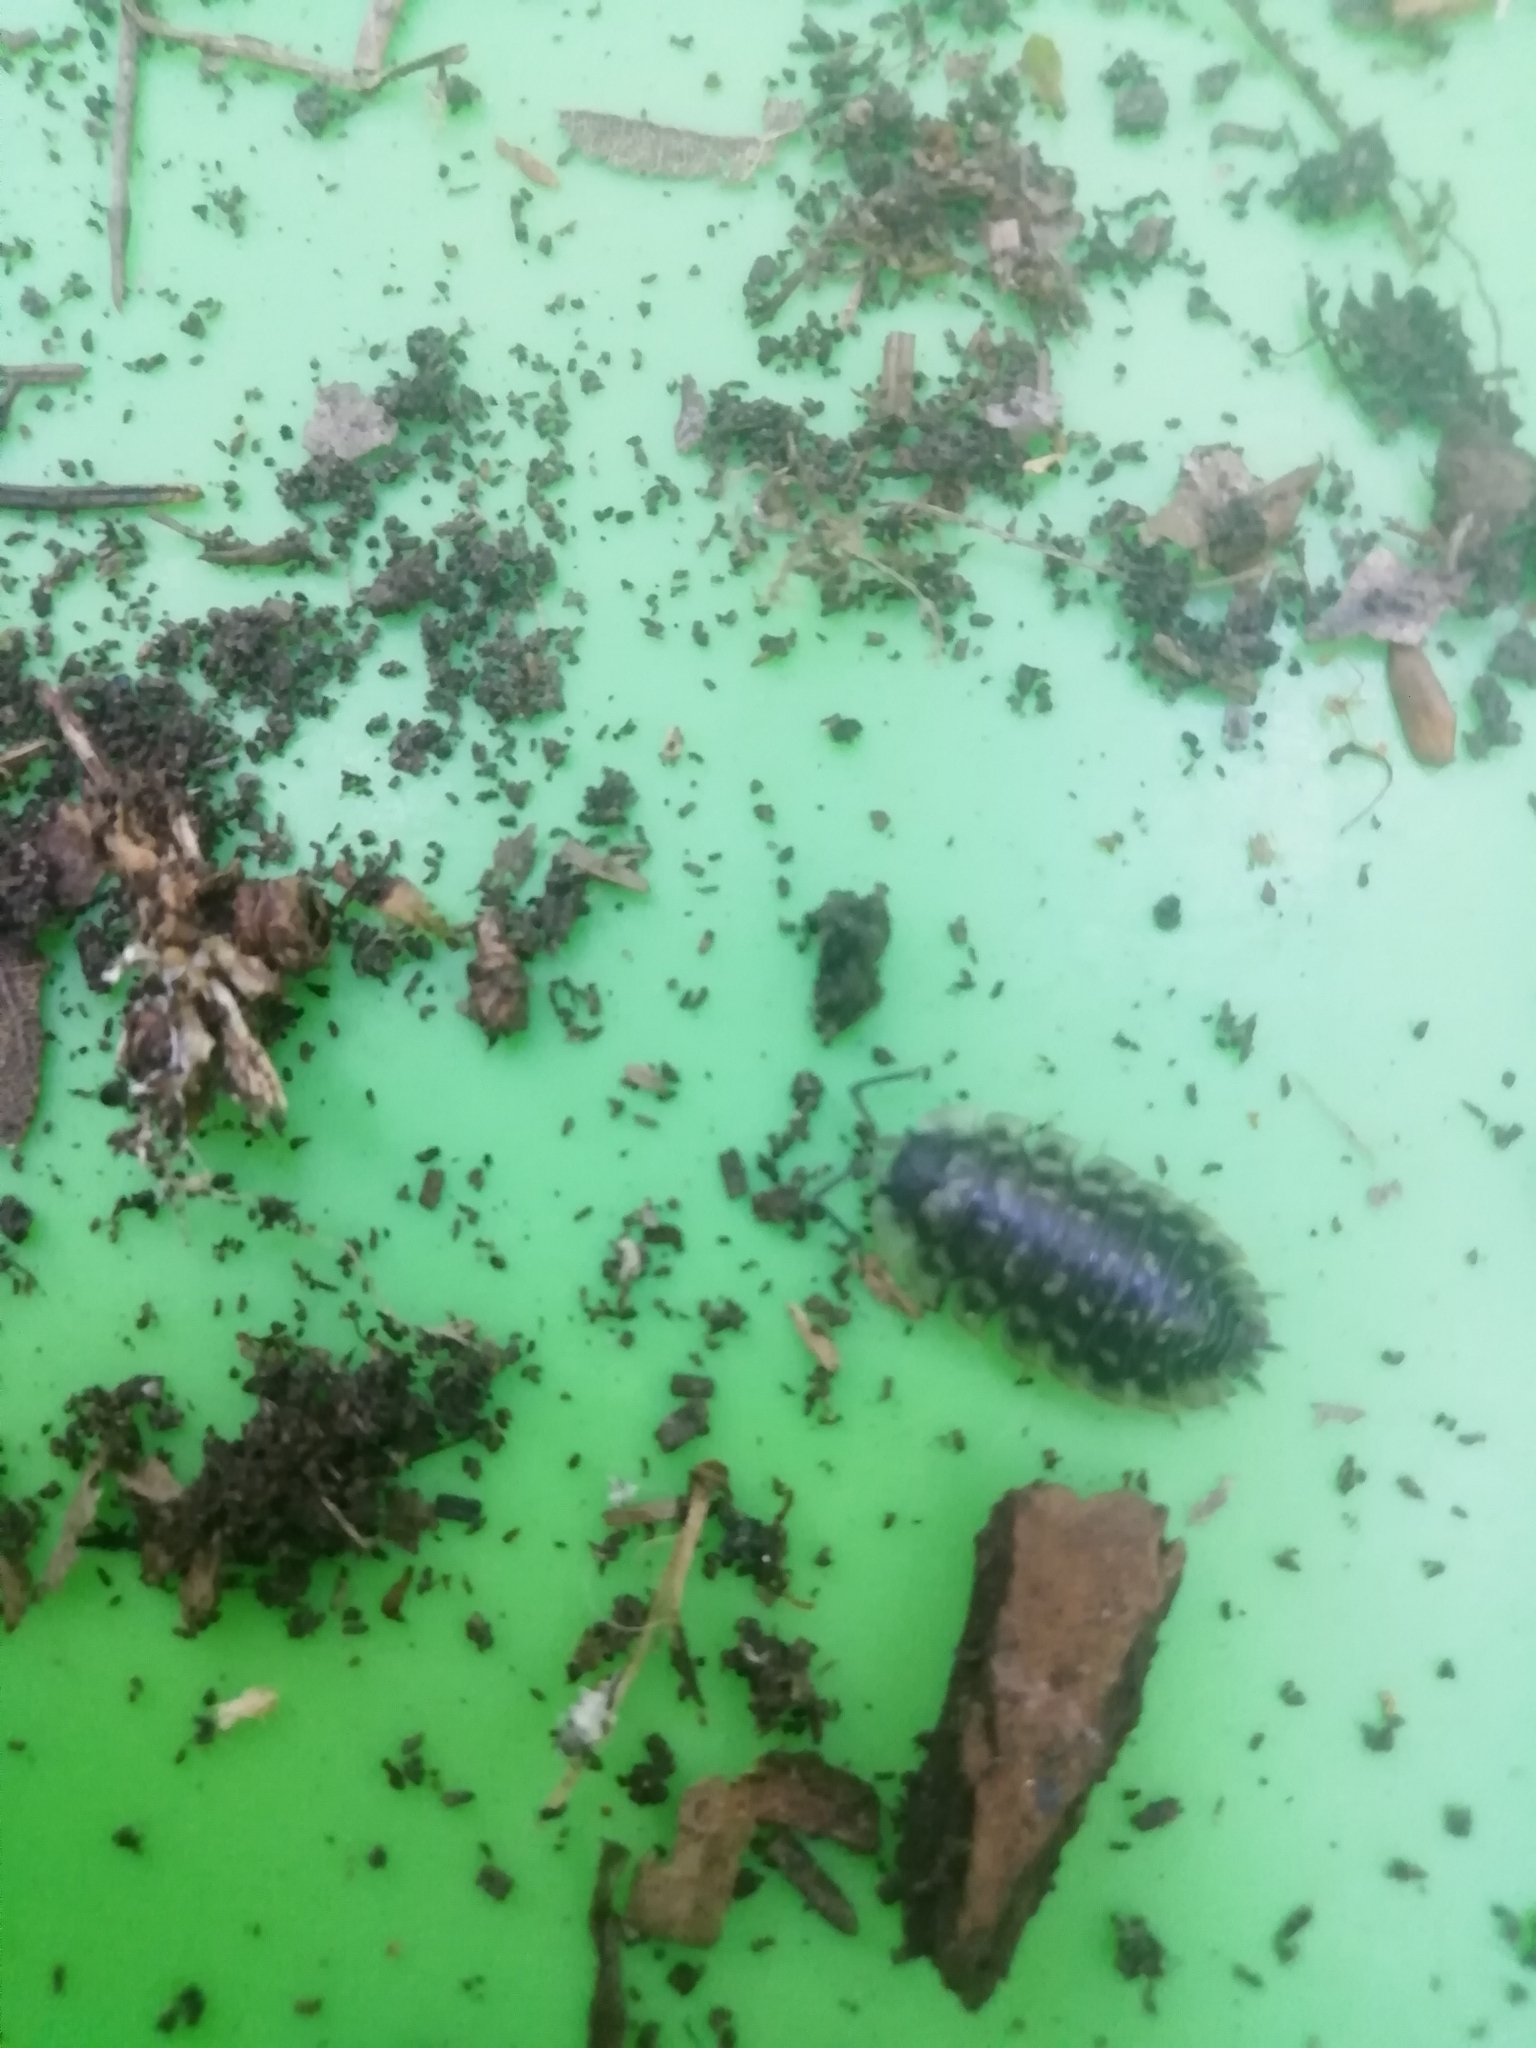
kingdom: Animalia
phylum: Arthropoda
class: Malacostraca
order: Isopoda
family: Oniscidae
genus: Oniscus
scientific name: Oniscus asellus
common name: Common shiny woodlouse
